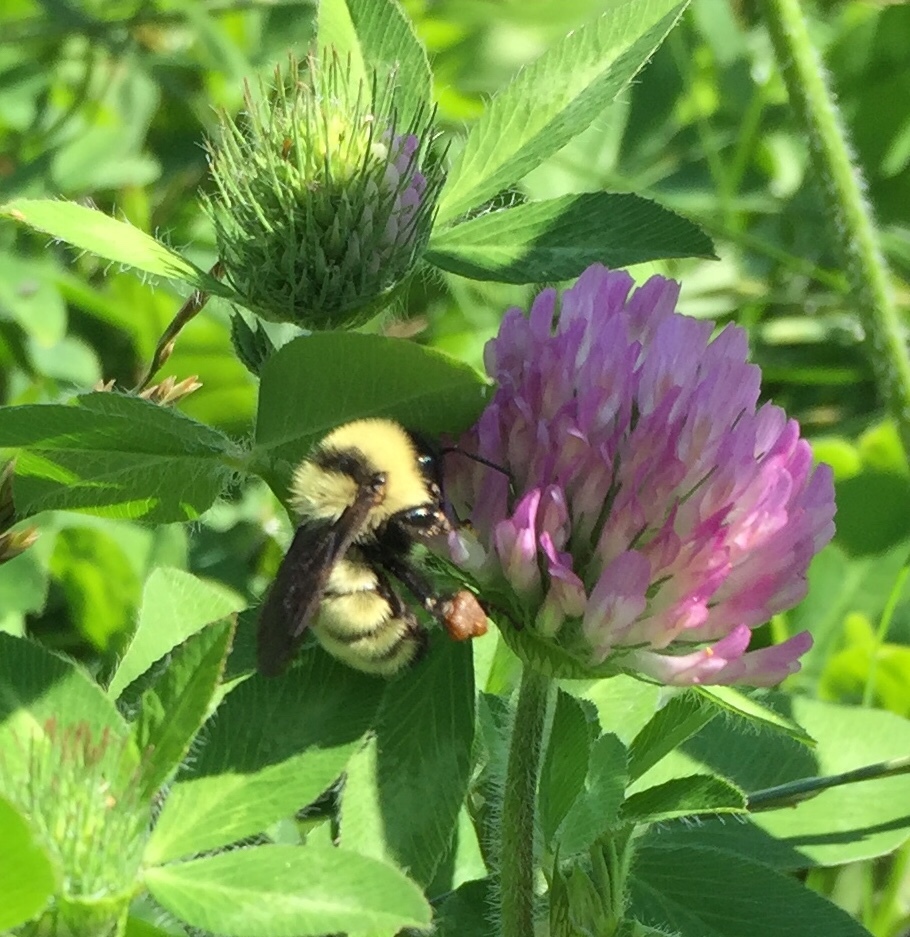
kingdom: Animalia
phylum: Arthropoda
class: Insecta
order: Hymenoptera
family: Apidae
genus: Bombus
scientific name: Bombus fervidus
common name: Yellow bumble bee
